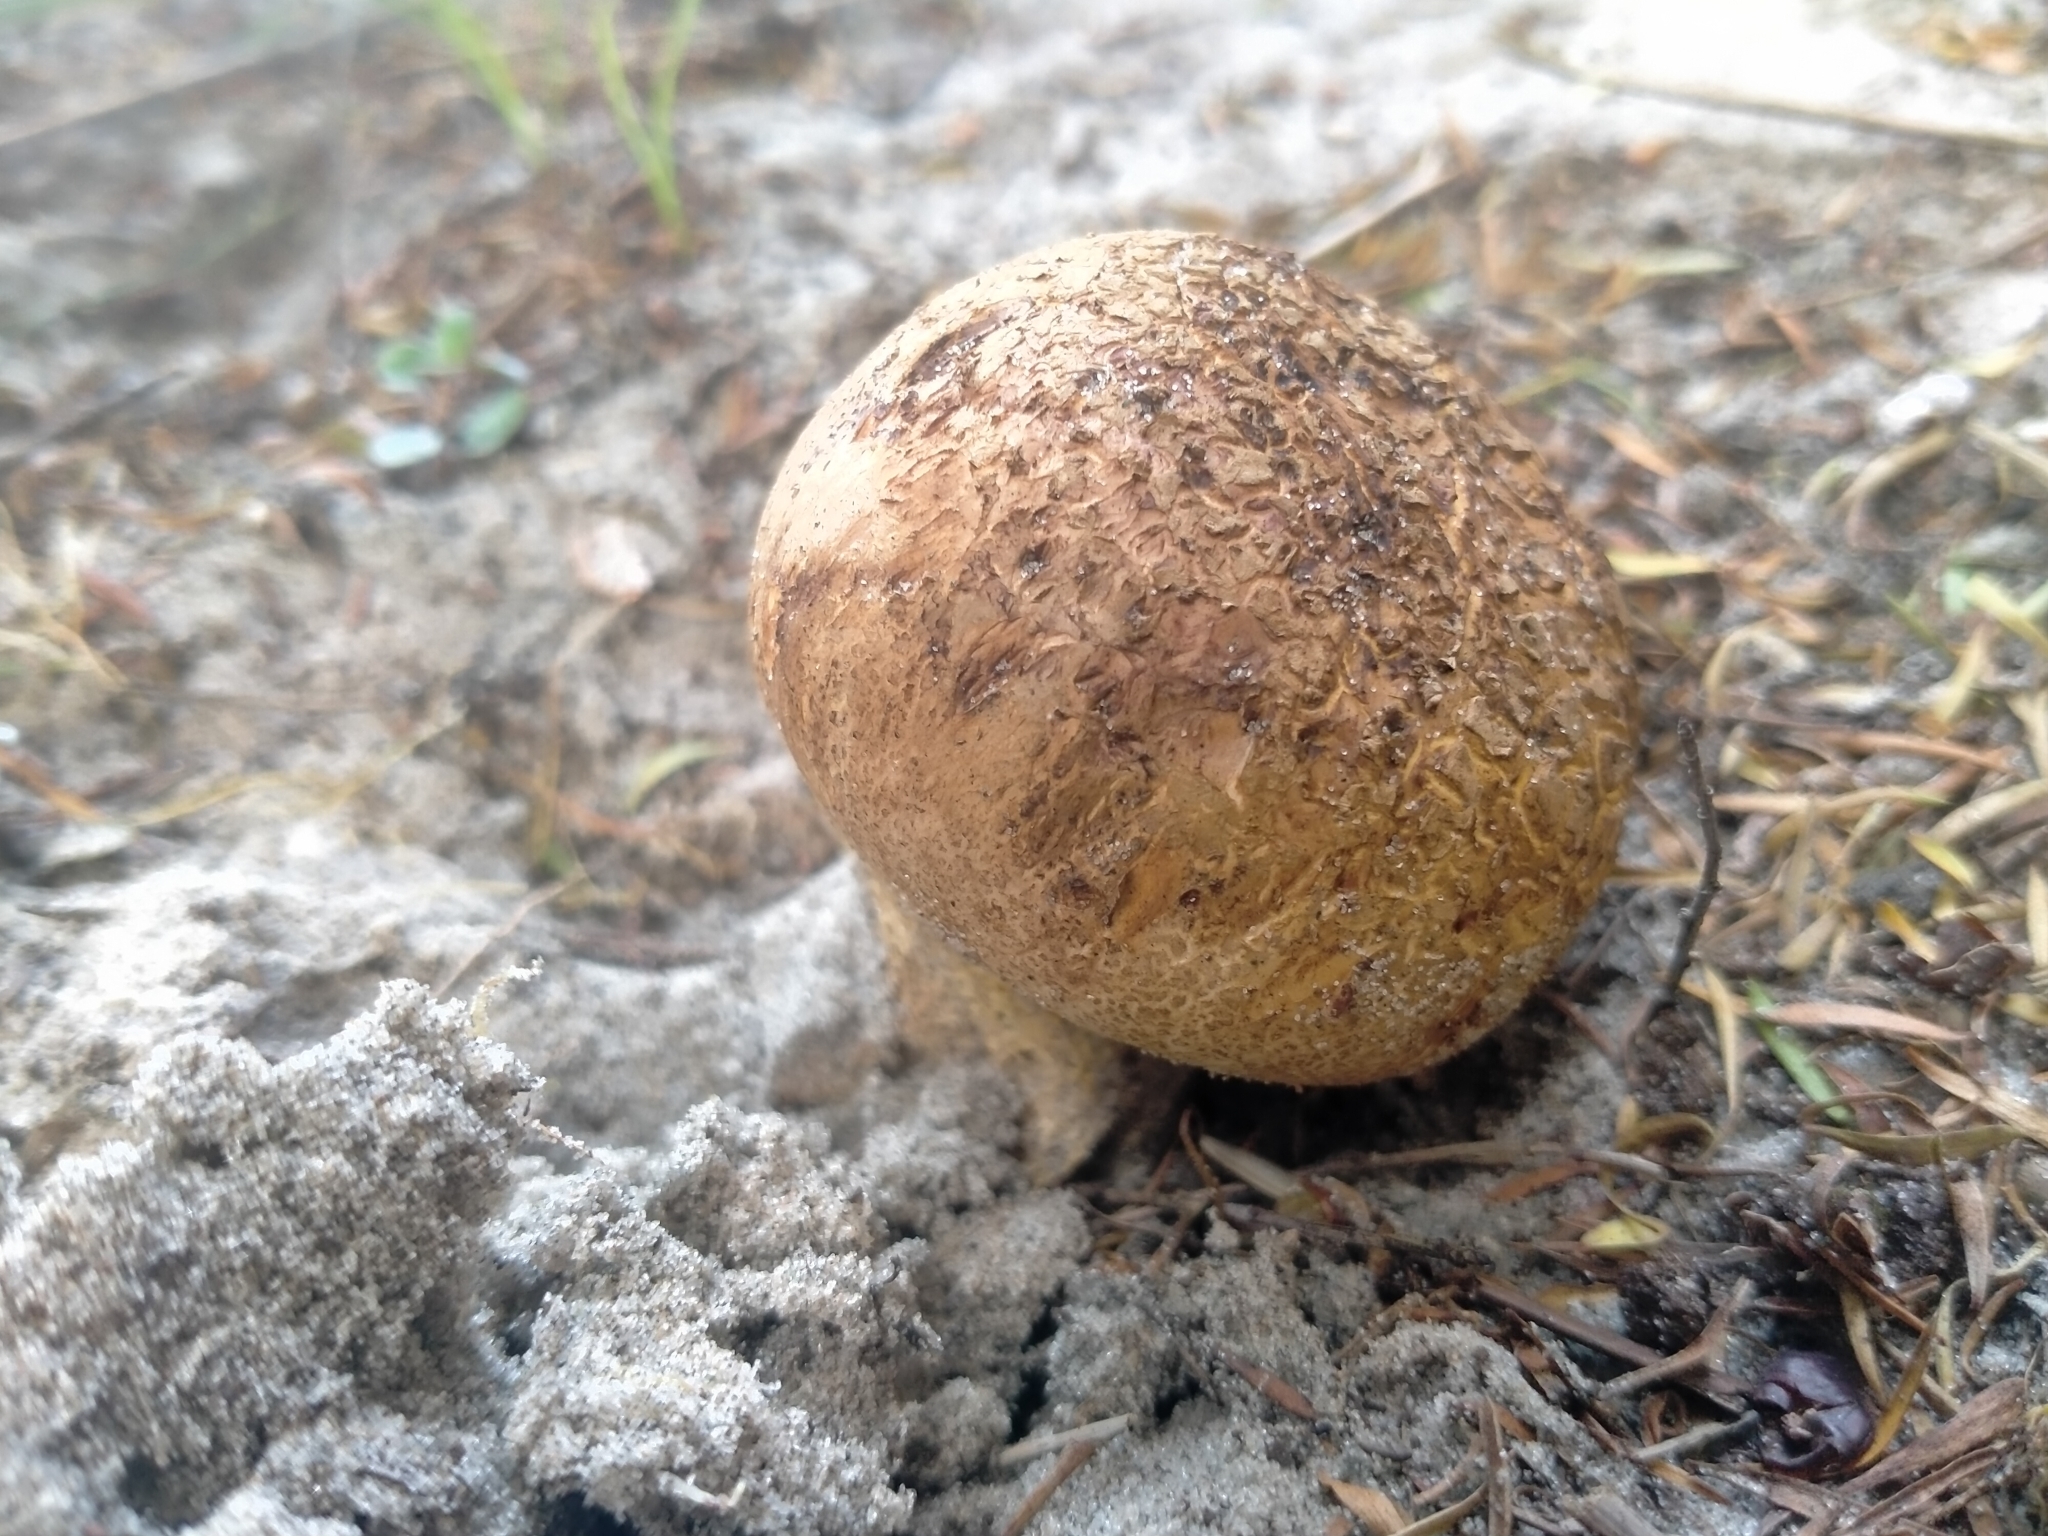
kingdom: Fungi
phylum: Basidiomycota
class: Agaricomycetes
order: Boletales
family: Sclerodermataceae
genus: Scleroderma
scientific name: Scleroderma
